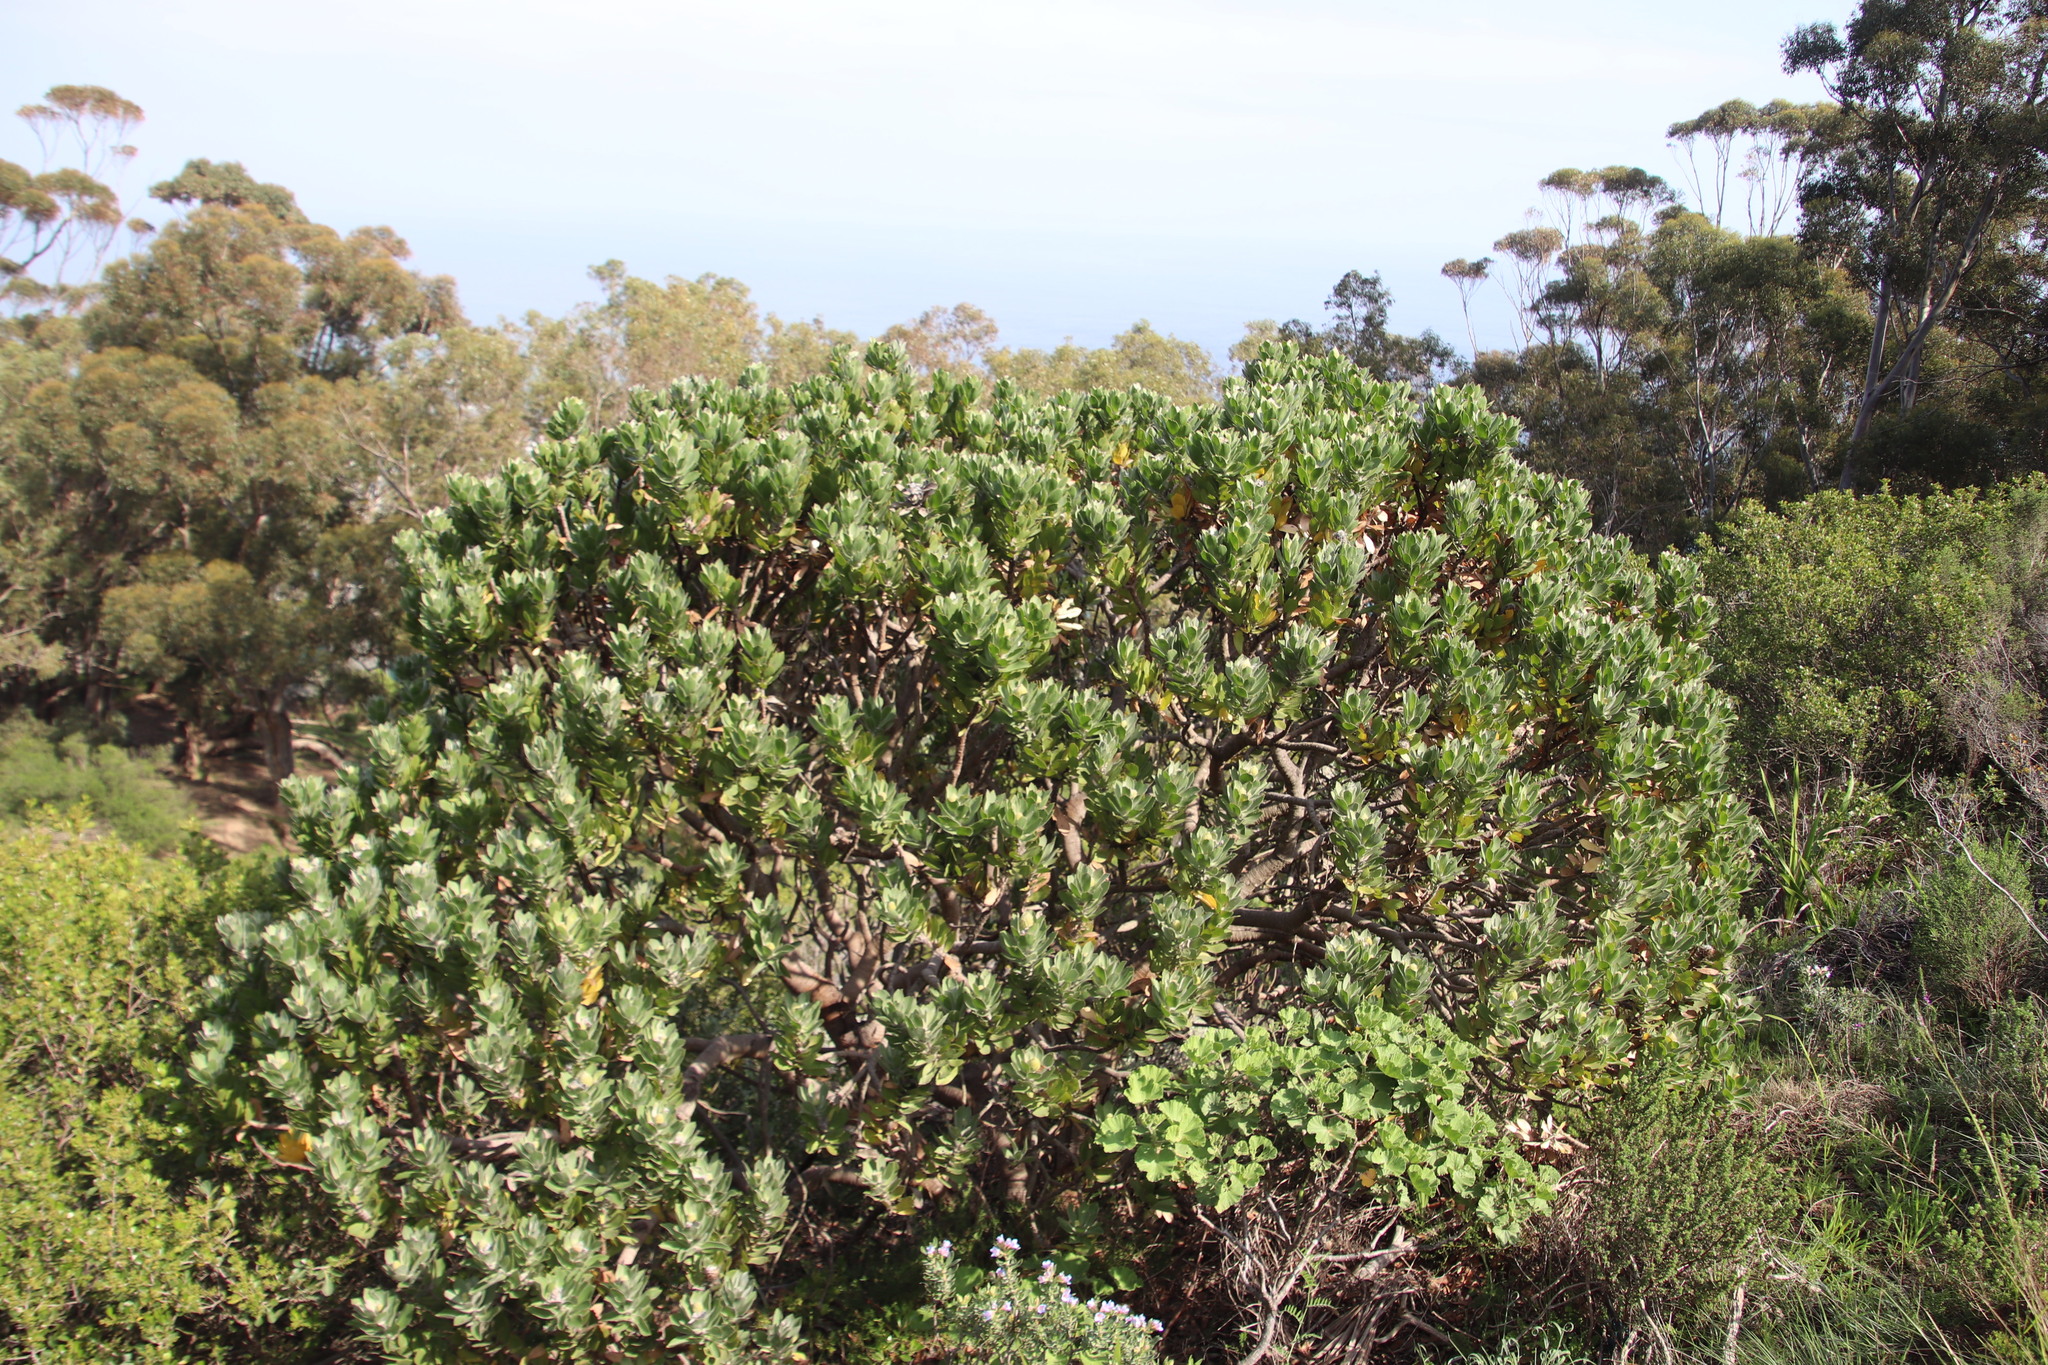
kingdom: Plantae
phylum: Tracheophyta
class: Magnoliopsida
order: Proteales
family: Proteaceae
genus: Leucospermum
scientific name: Leucospermum conocarpodendron
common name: Tree pincushion
